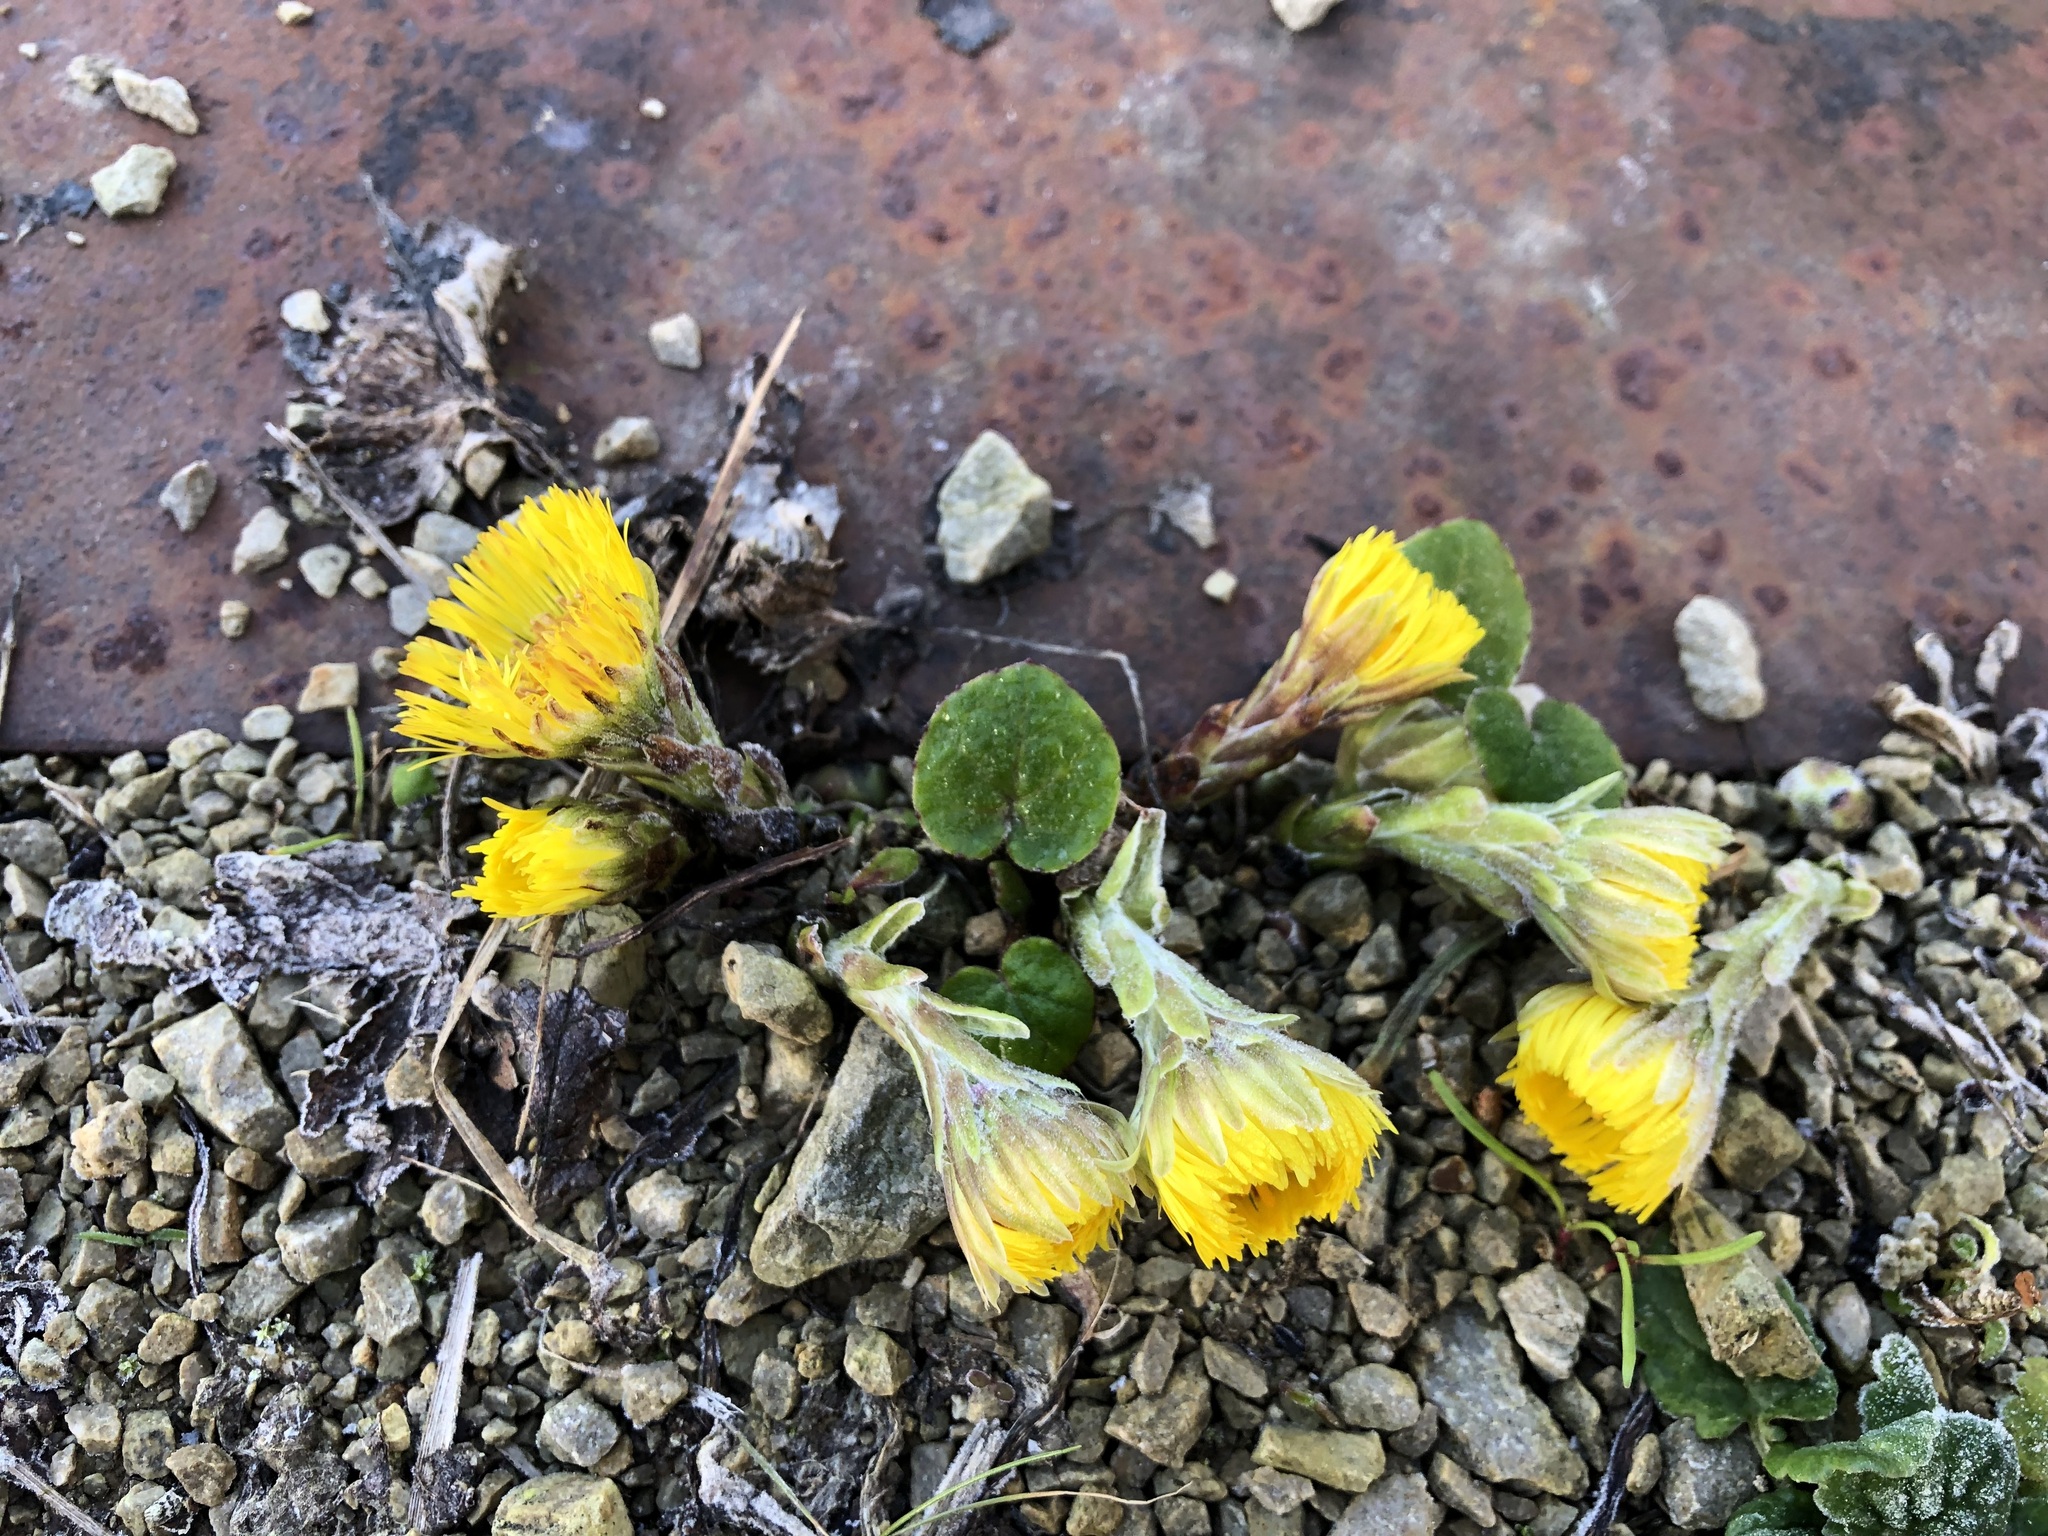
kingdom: Plantae
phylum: Tracheophyta
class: Magnoliopsida
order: Asterales
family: Asteraceae
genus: Tussilago
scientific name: Tussilago farfara
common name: Coltsfoot
